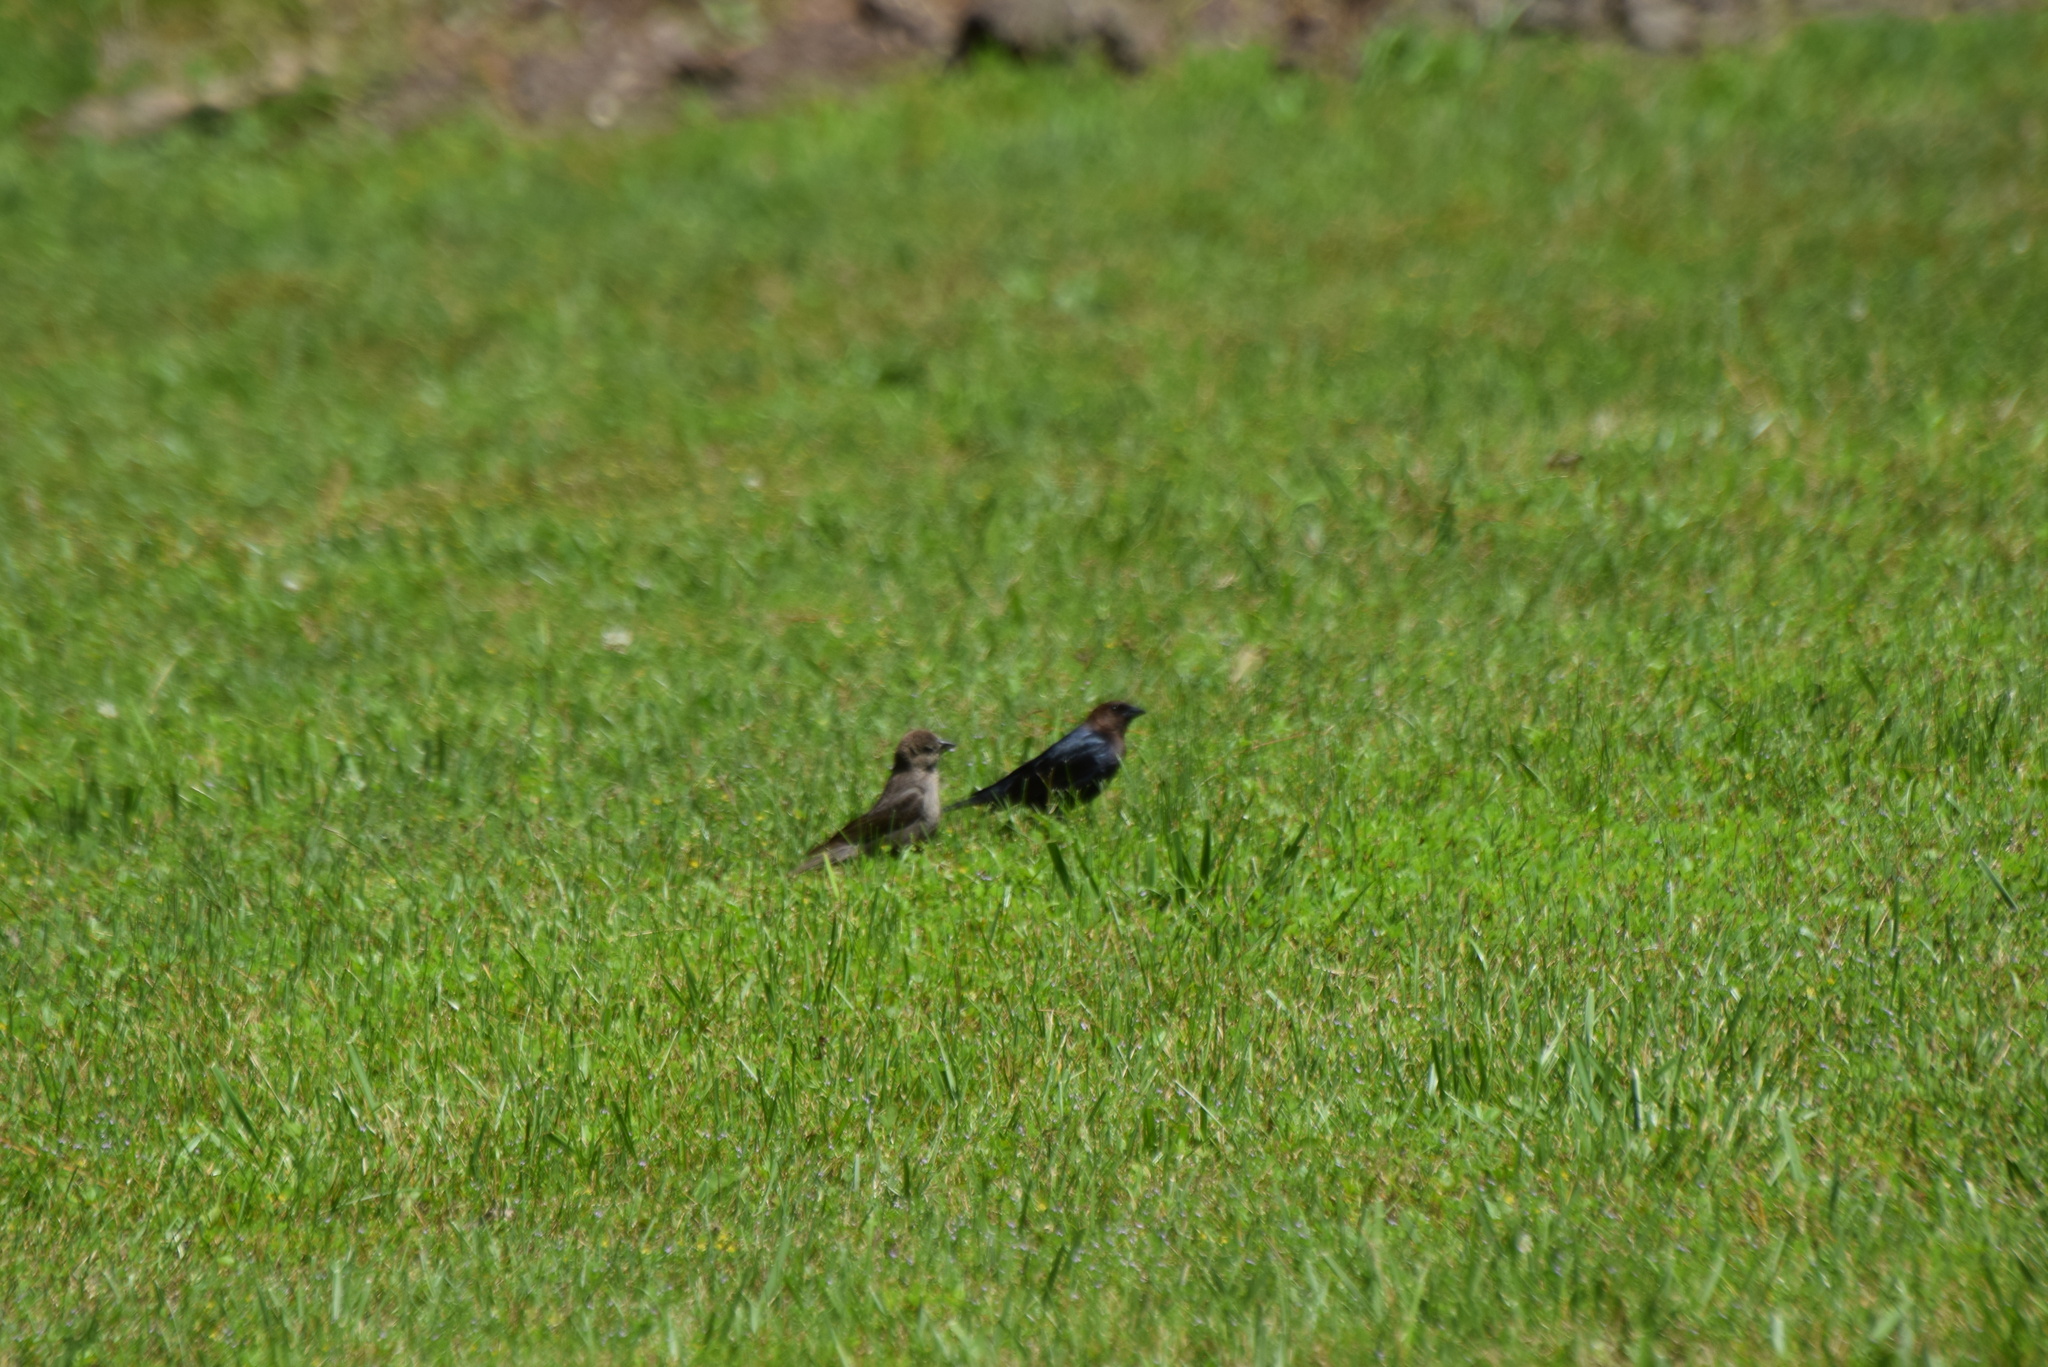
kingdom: Animalia
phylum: Chordata
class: Aves
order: Passeriformes
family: Icteridae
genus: Molothrus
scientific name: Molothrus ater
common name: Brown-headed cowbird
